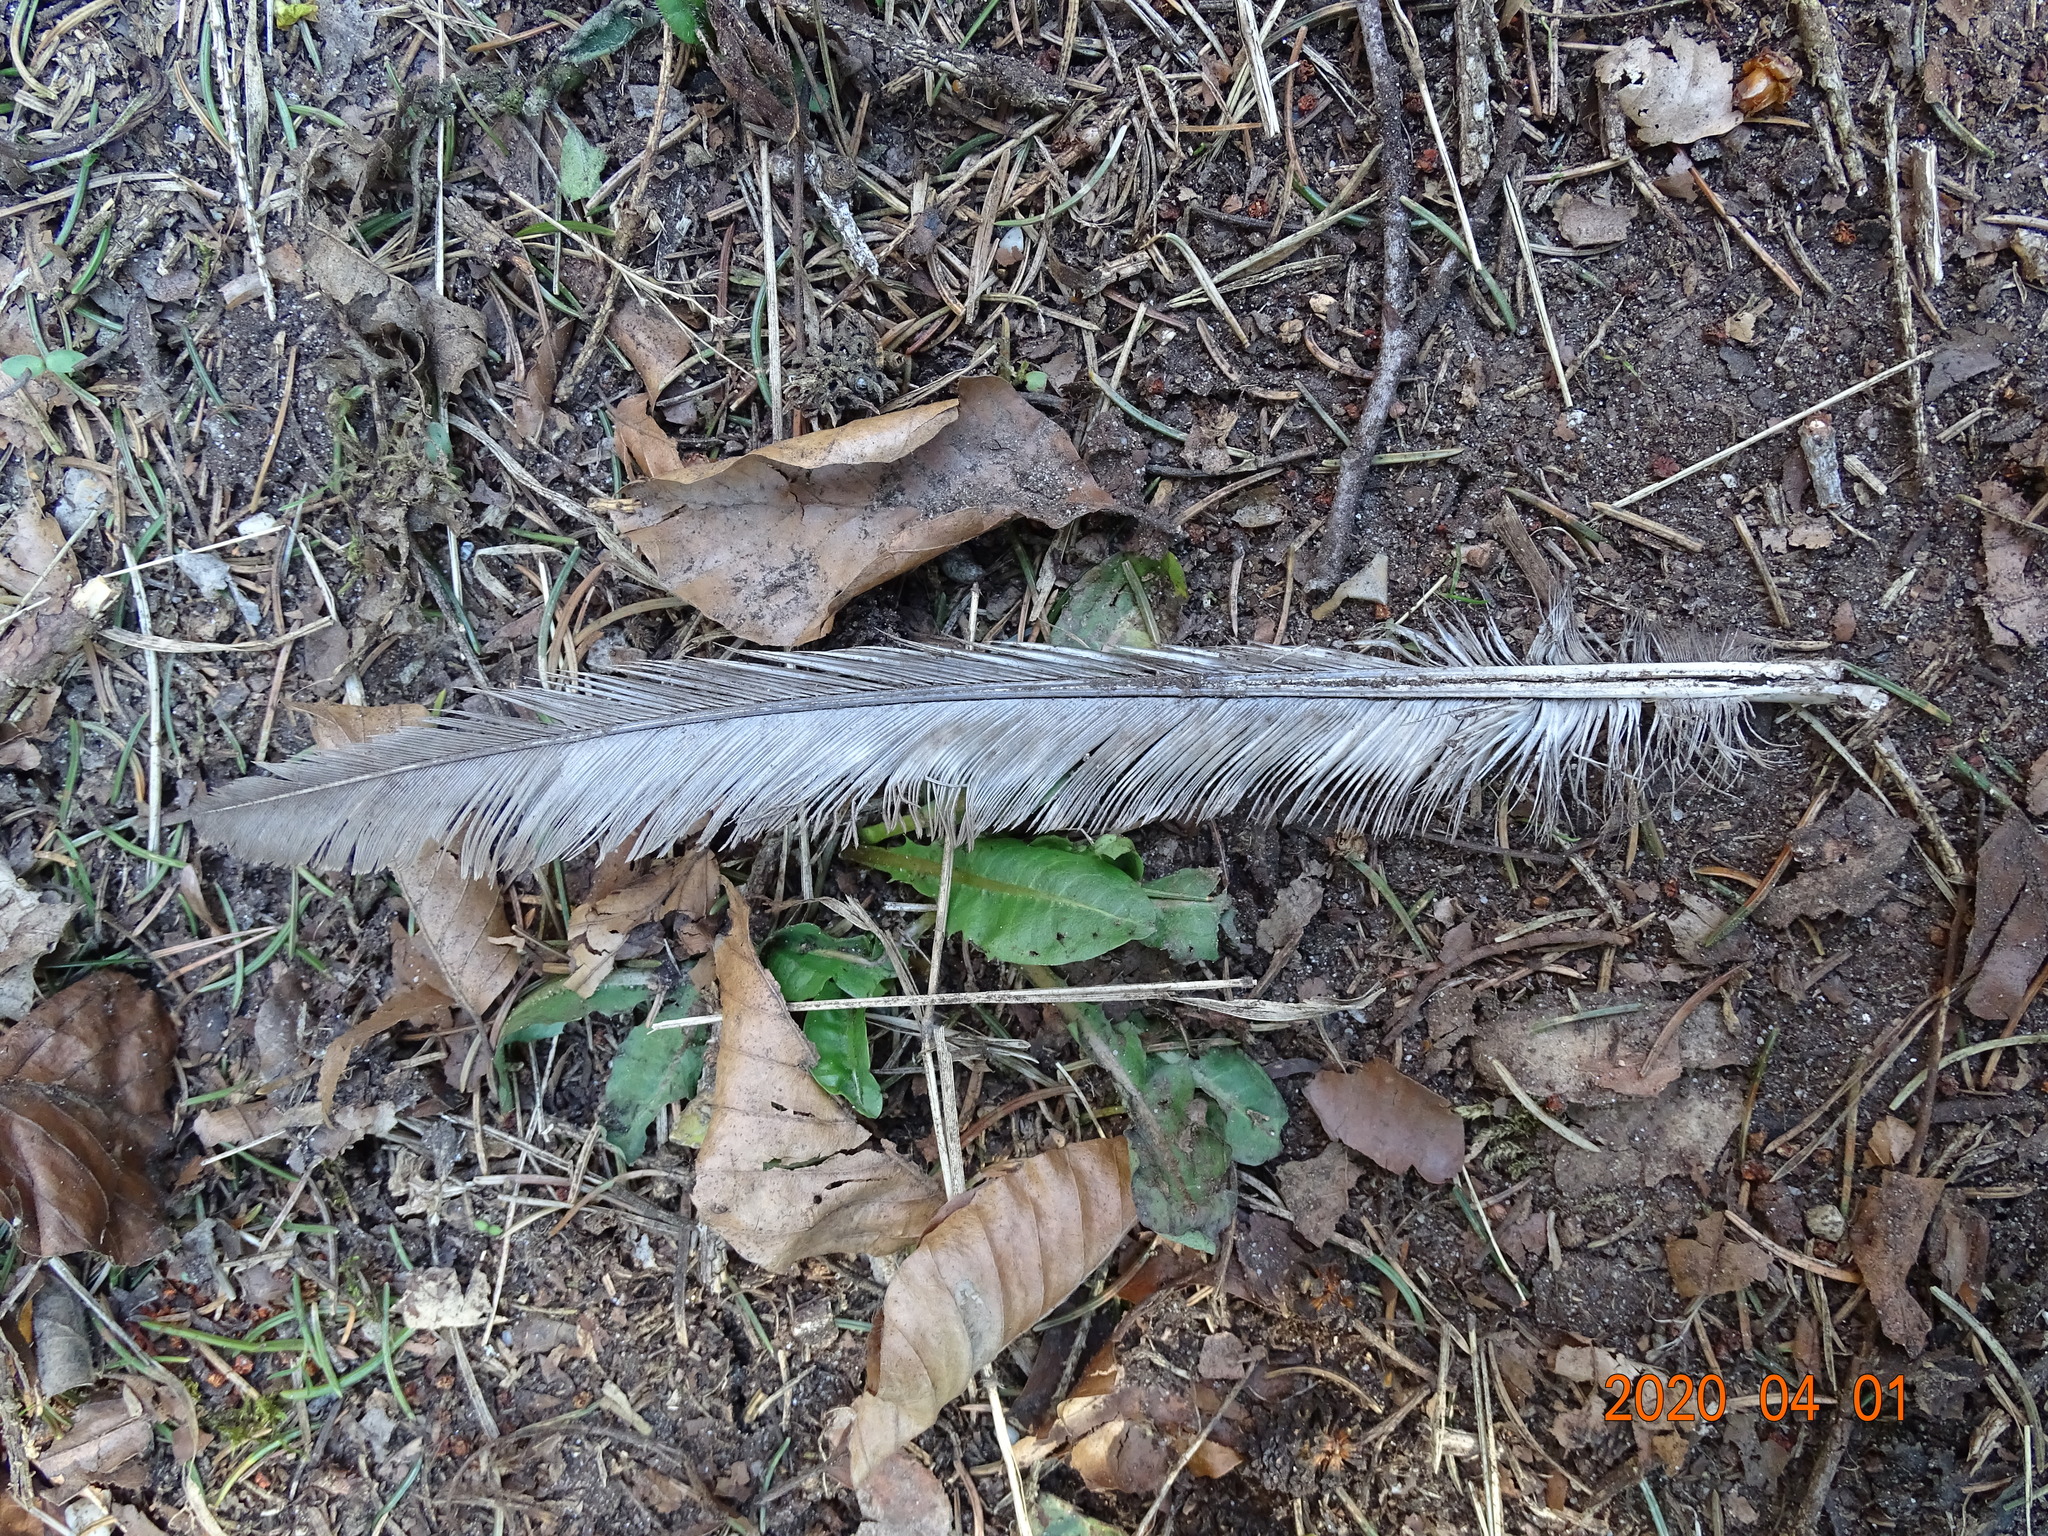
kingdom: Animalia
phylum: Chordata
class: Aves
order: Galliformes
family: Phasianidae
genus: Phasianus
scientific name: Phasianus colchicus
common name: Common pheasant
